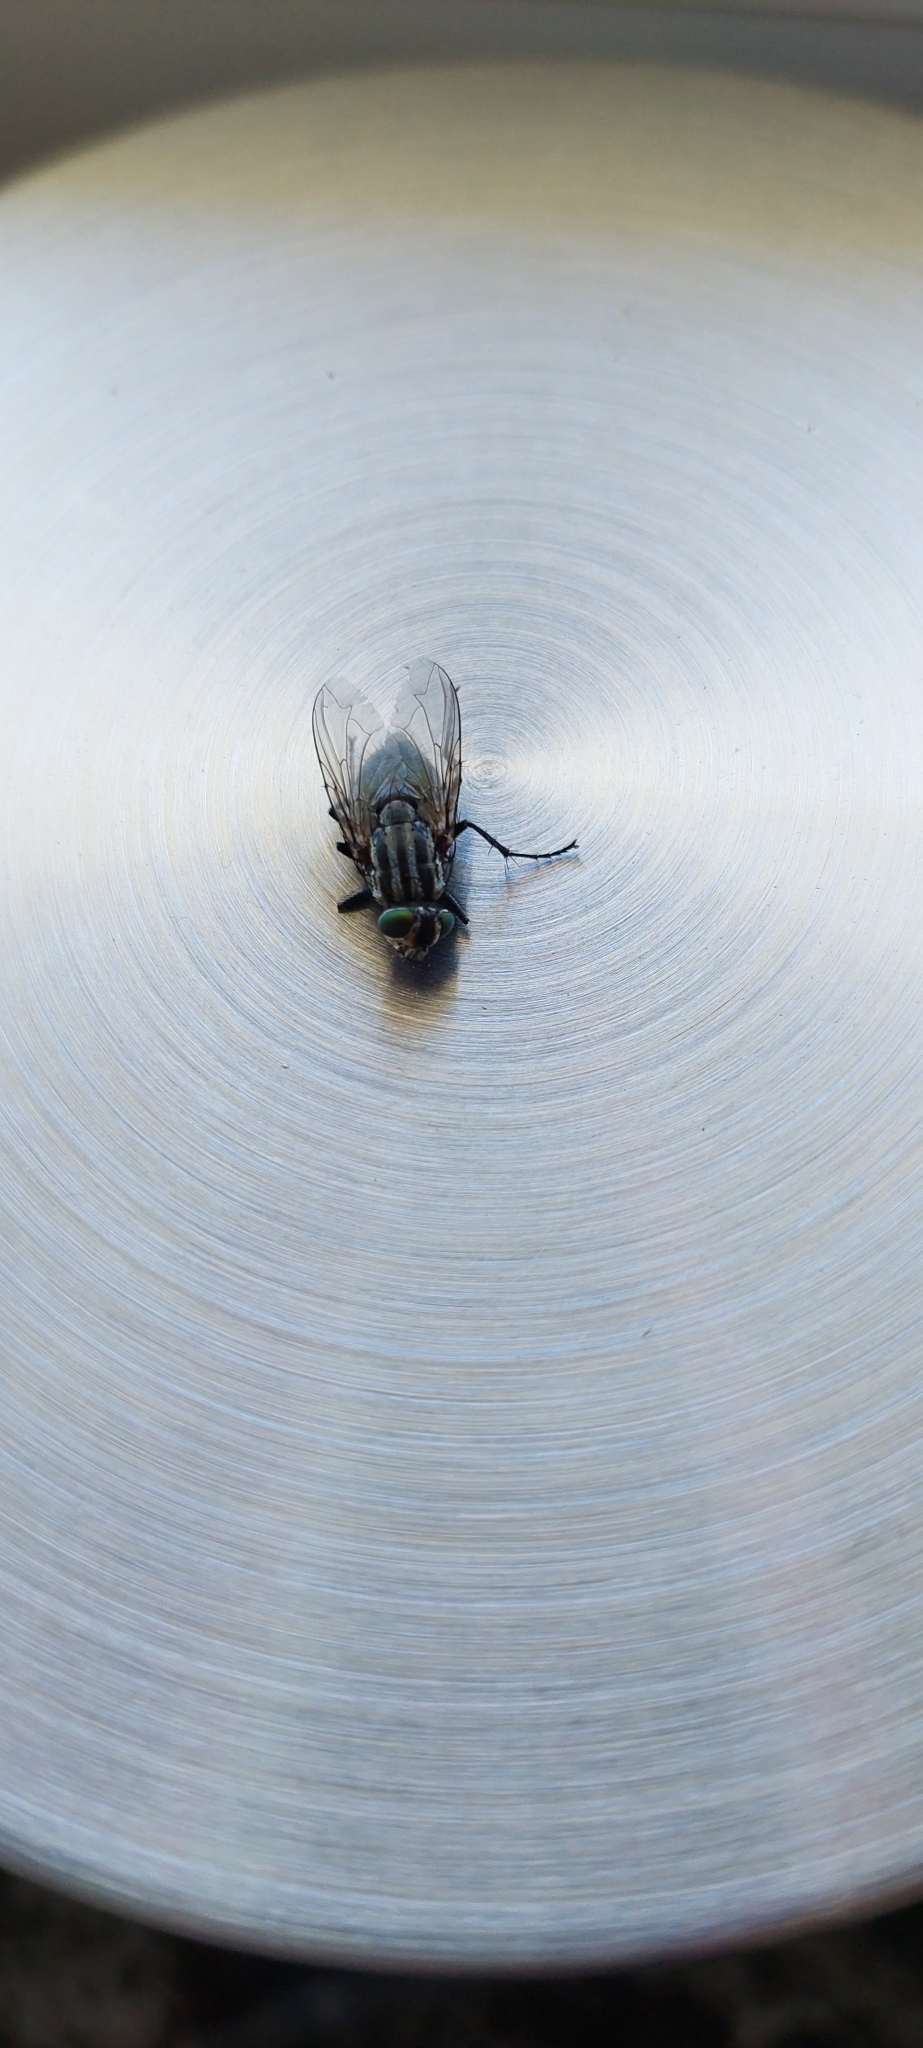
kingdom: Animalia
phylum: Arthropoda
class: Insecta
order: Diptera
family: Calliphoridae
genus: Sarconesia
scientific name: Sarconesia chlorogaster
